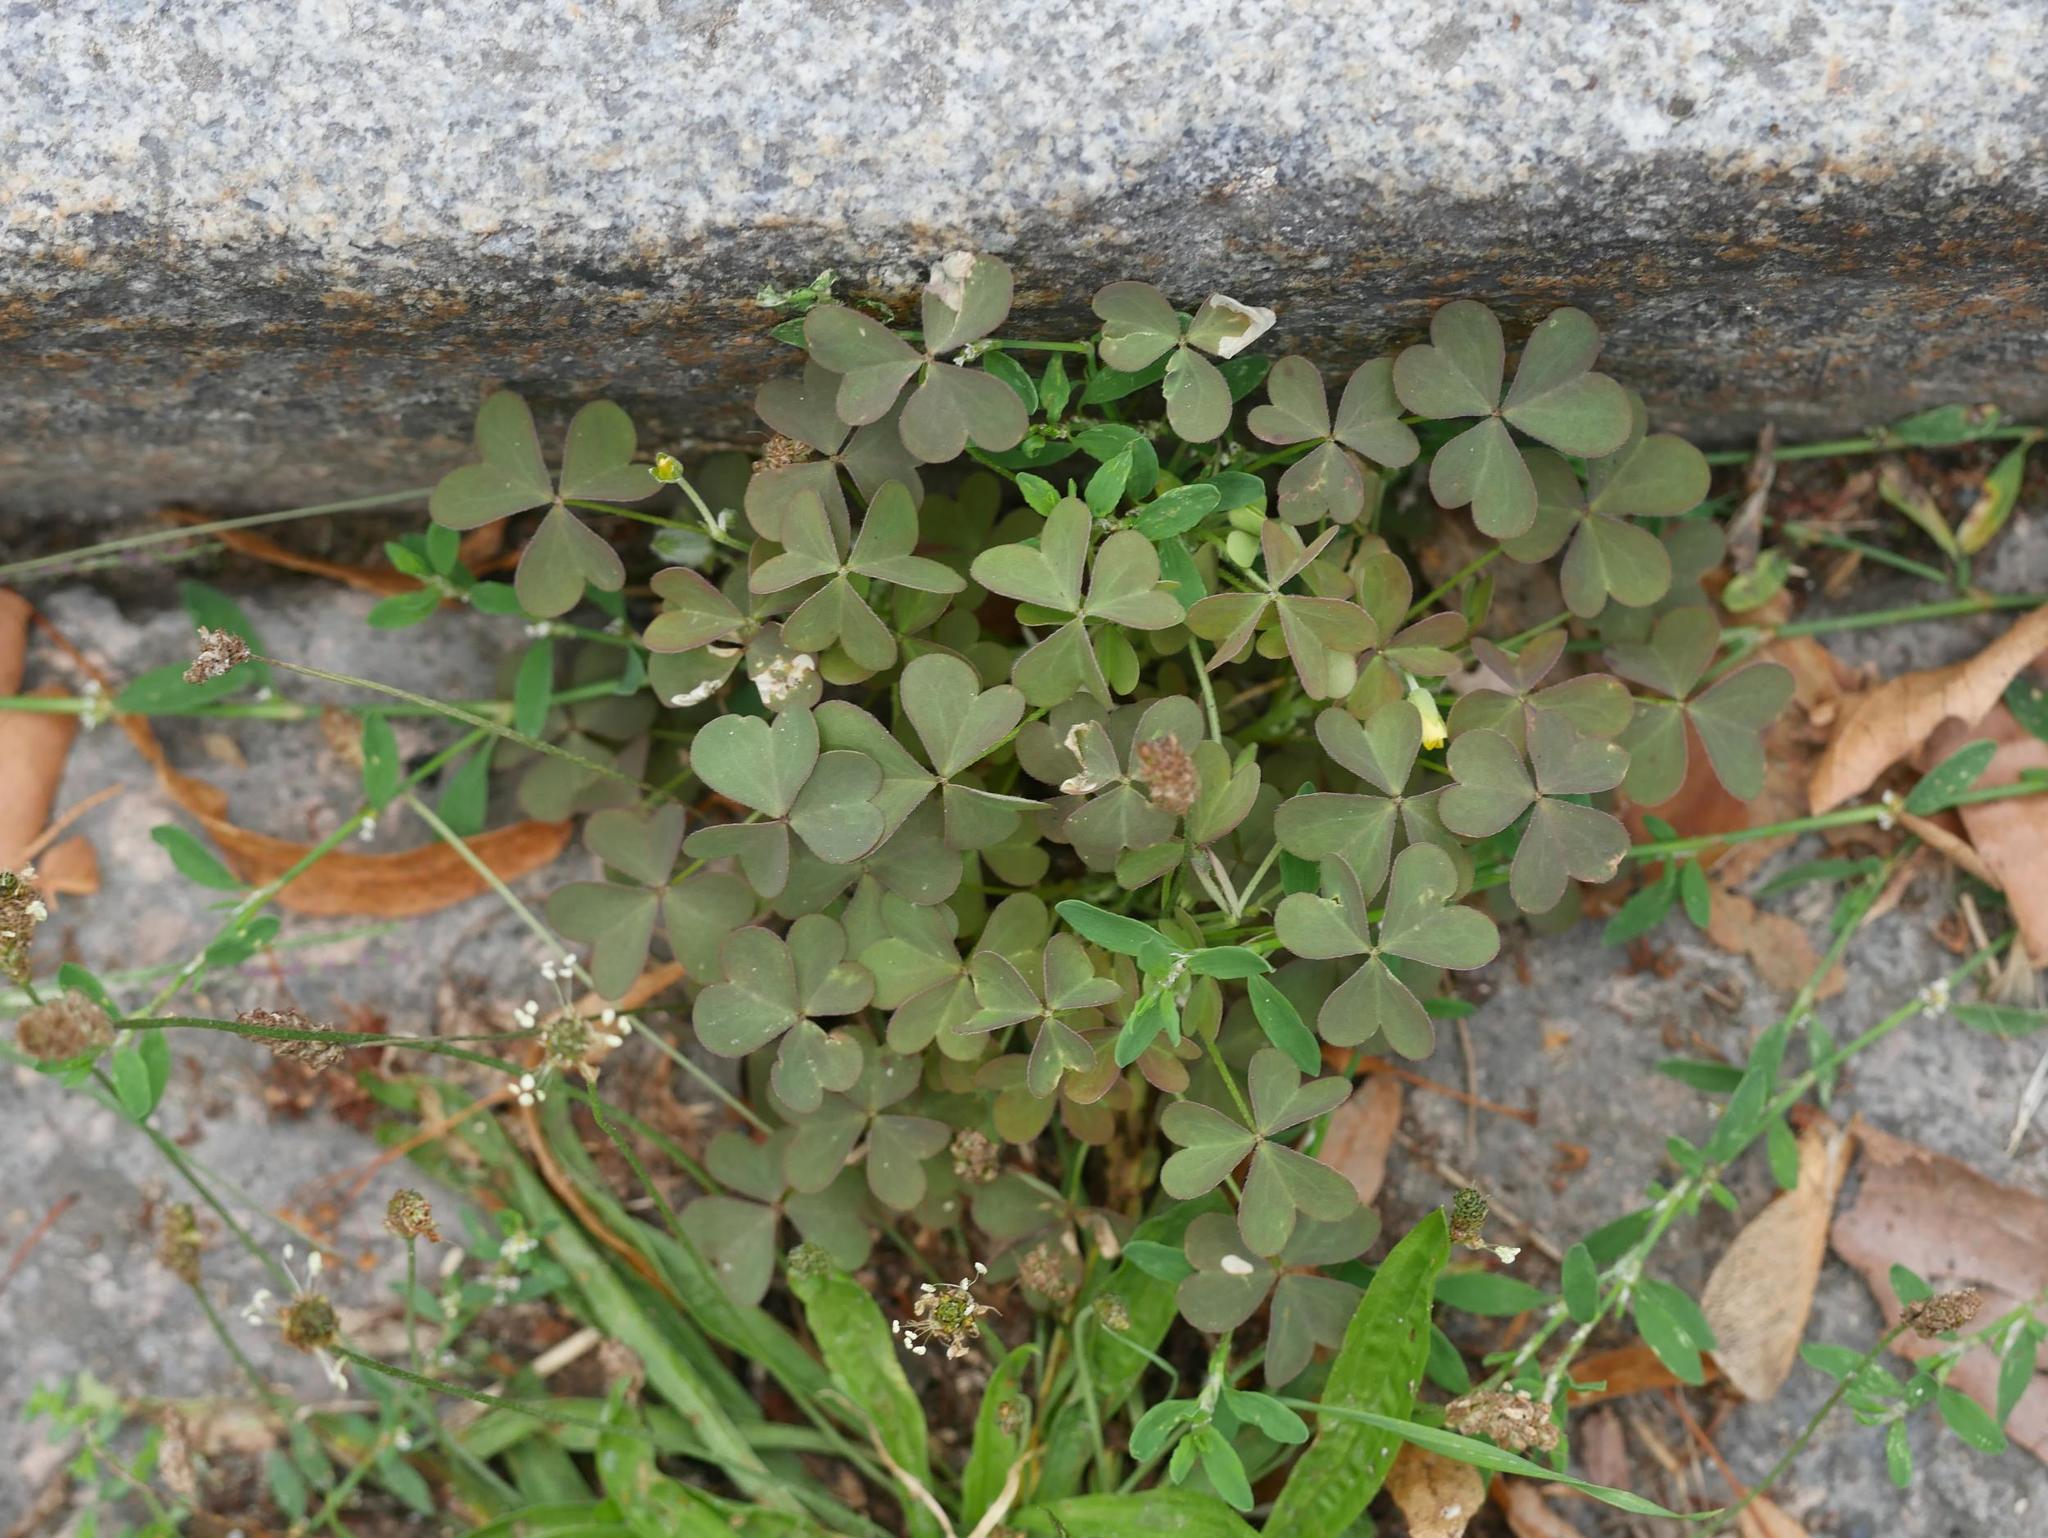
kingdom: Plantae
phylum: Tracheophyta
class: Magnoliopsida
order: Oxalidales
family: Oxalidaceae
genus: Oxalis
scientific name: Oxalis corniculata
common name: Procumbent yellow-sorrel
